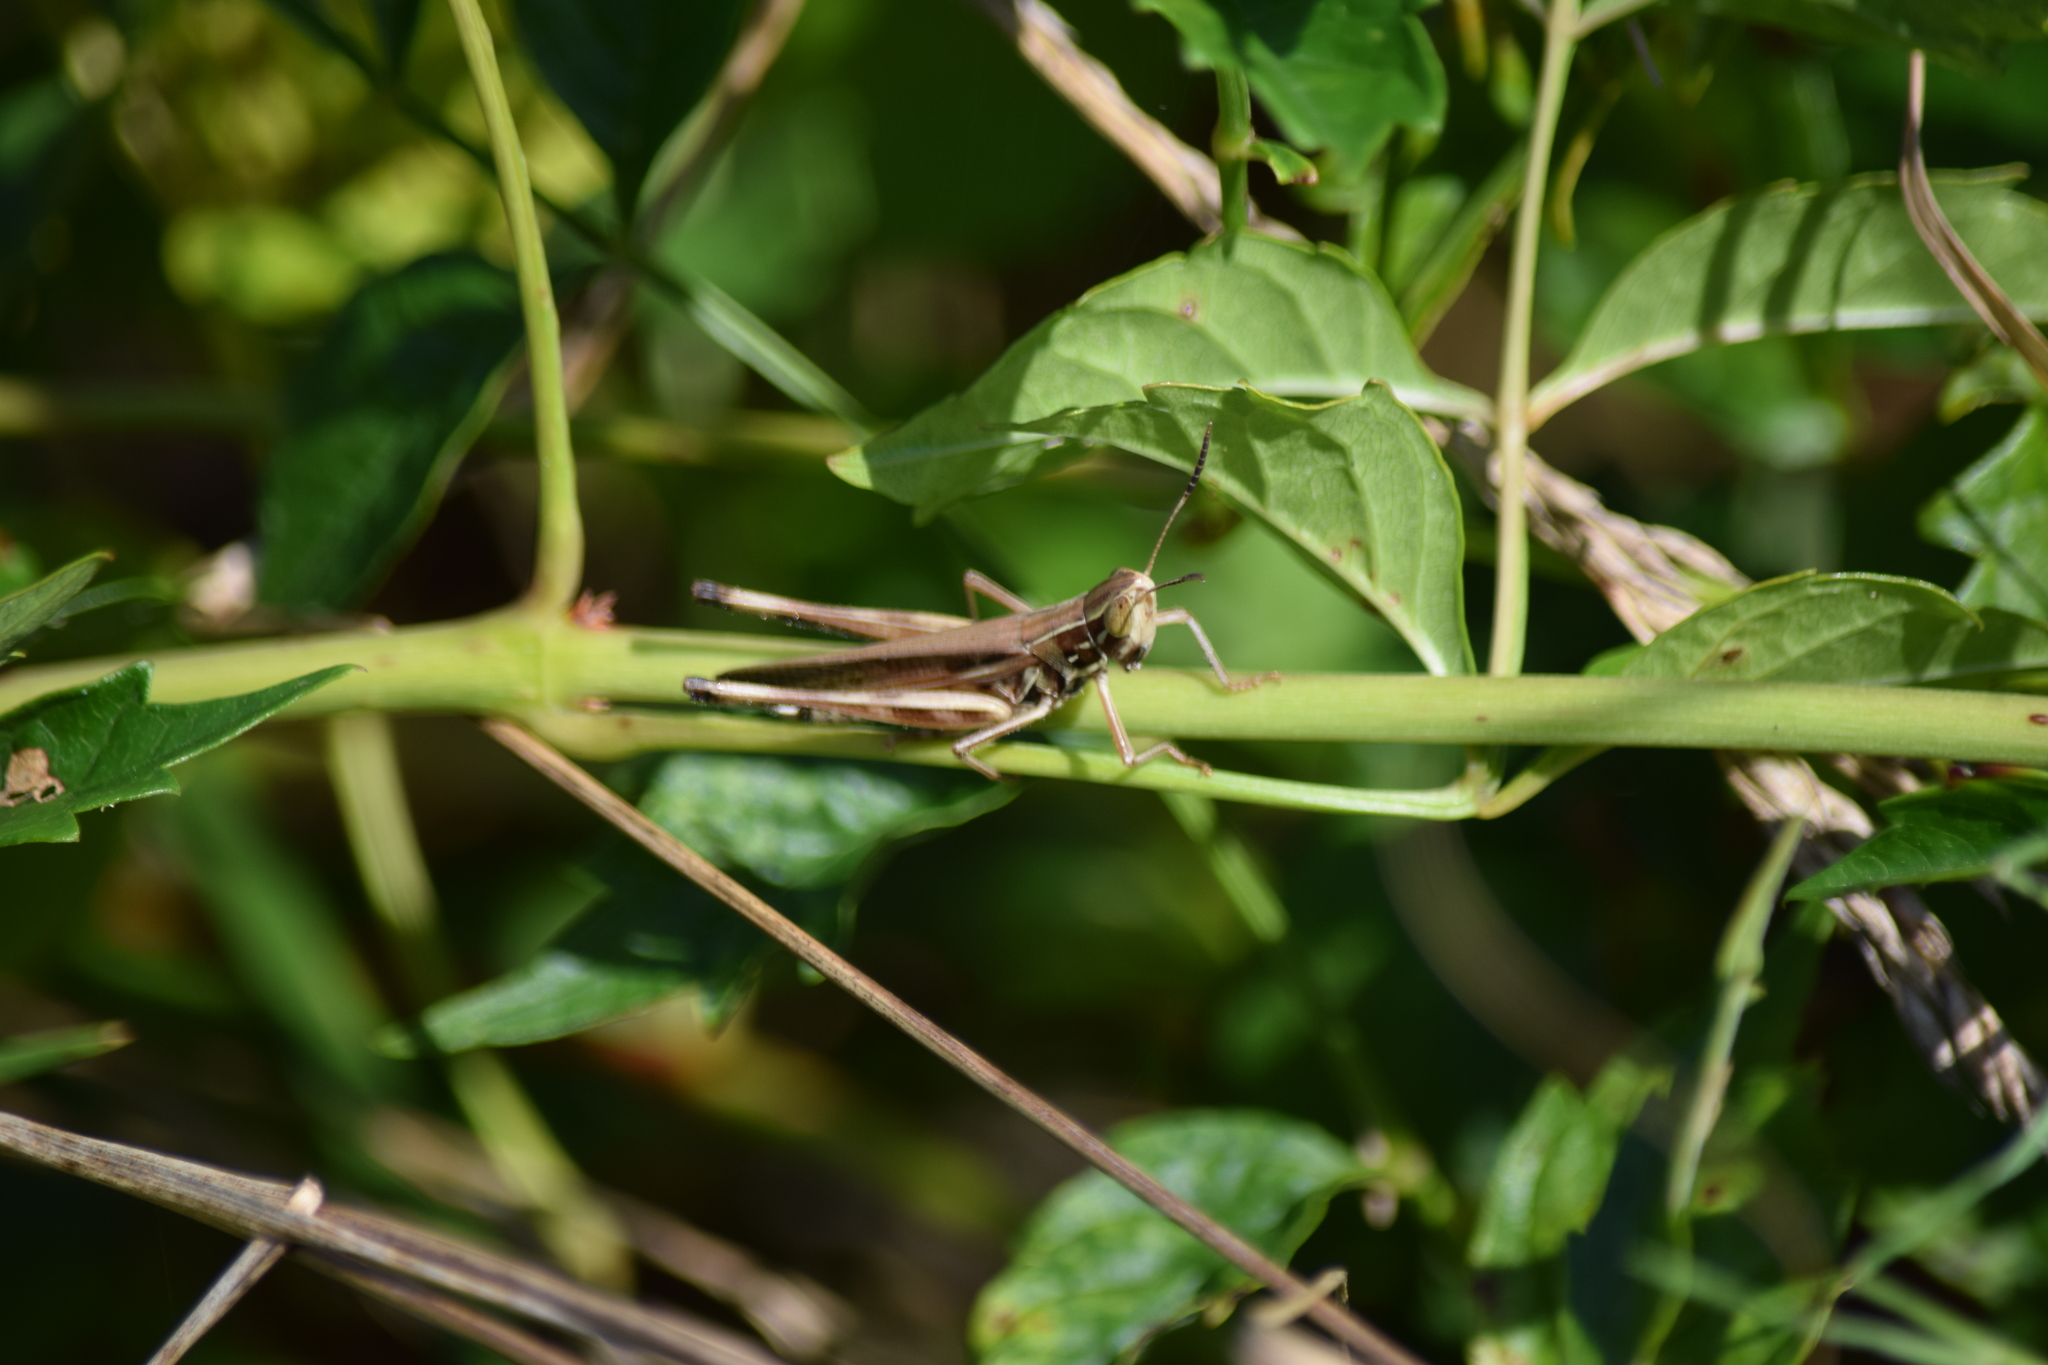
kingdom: Animalia
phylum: Arthropoda
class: Insecta
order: Orthoptera
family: Acrididae
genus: Syrbula
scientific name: Syrbula admirabilis
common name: Handsome grasshopper
